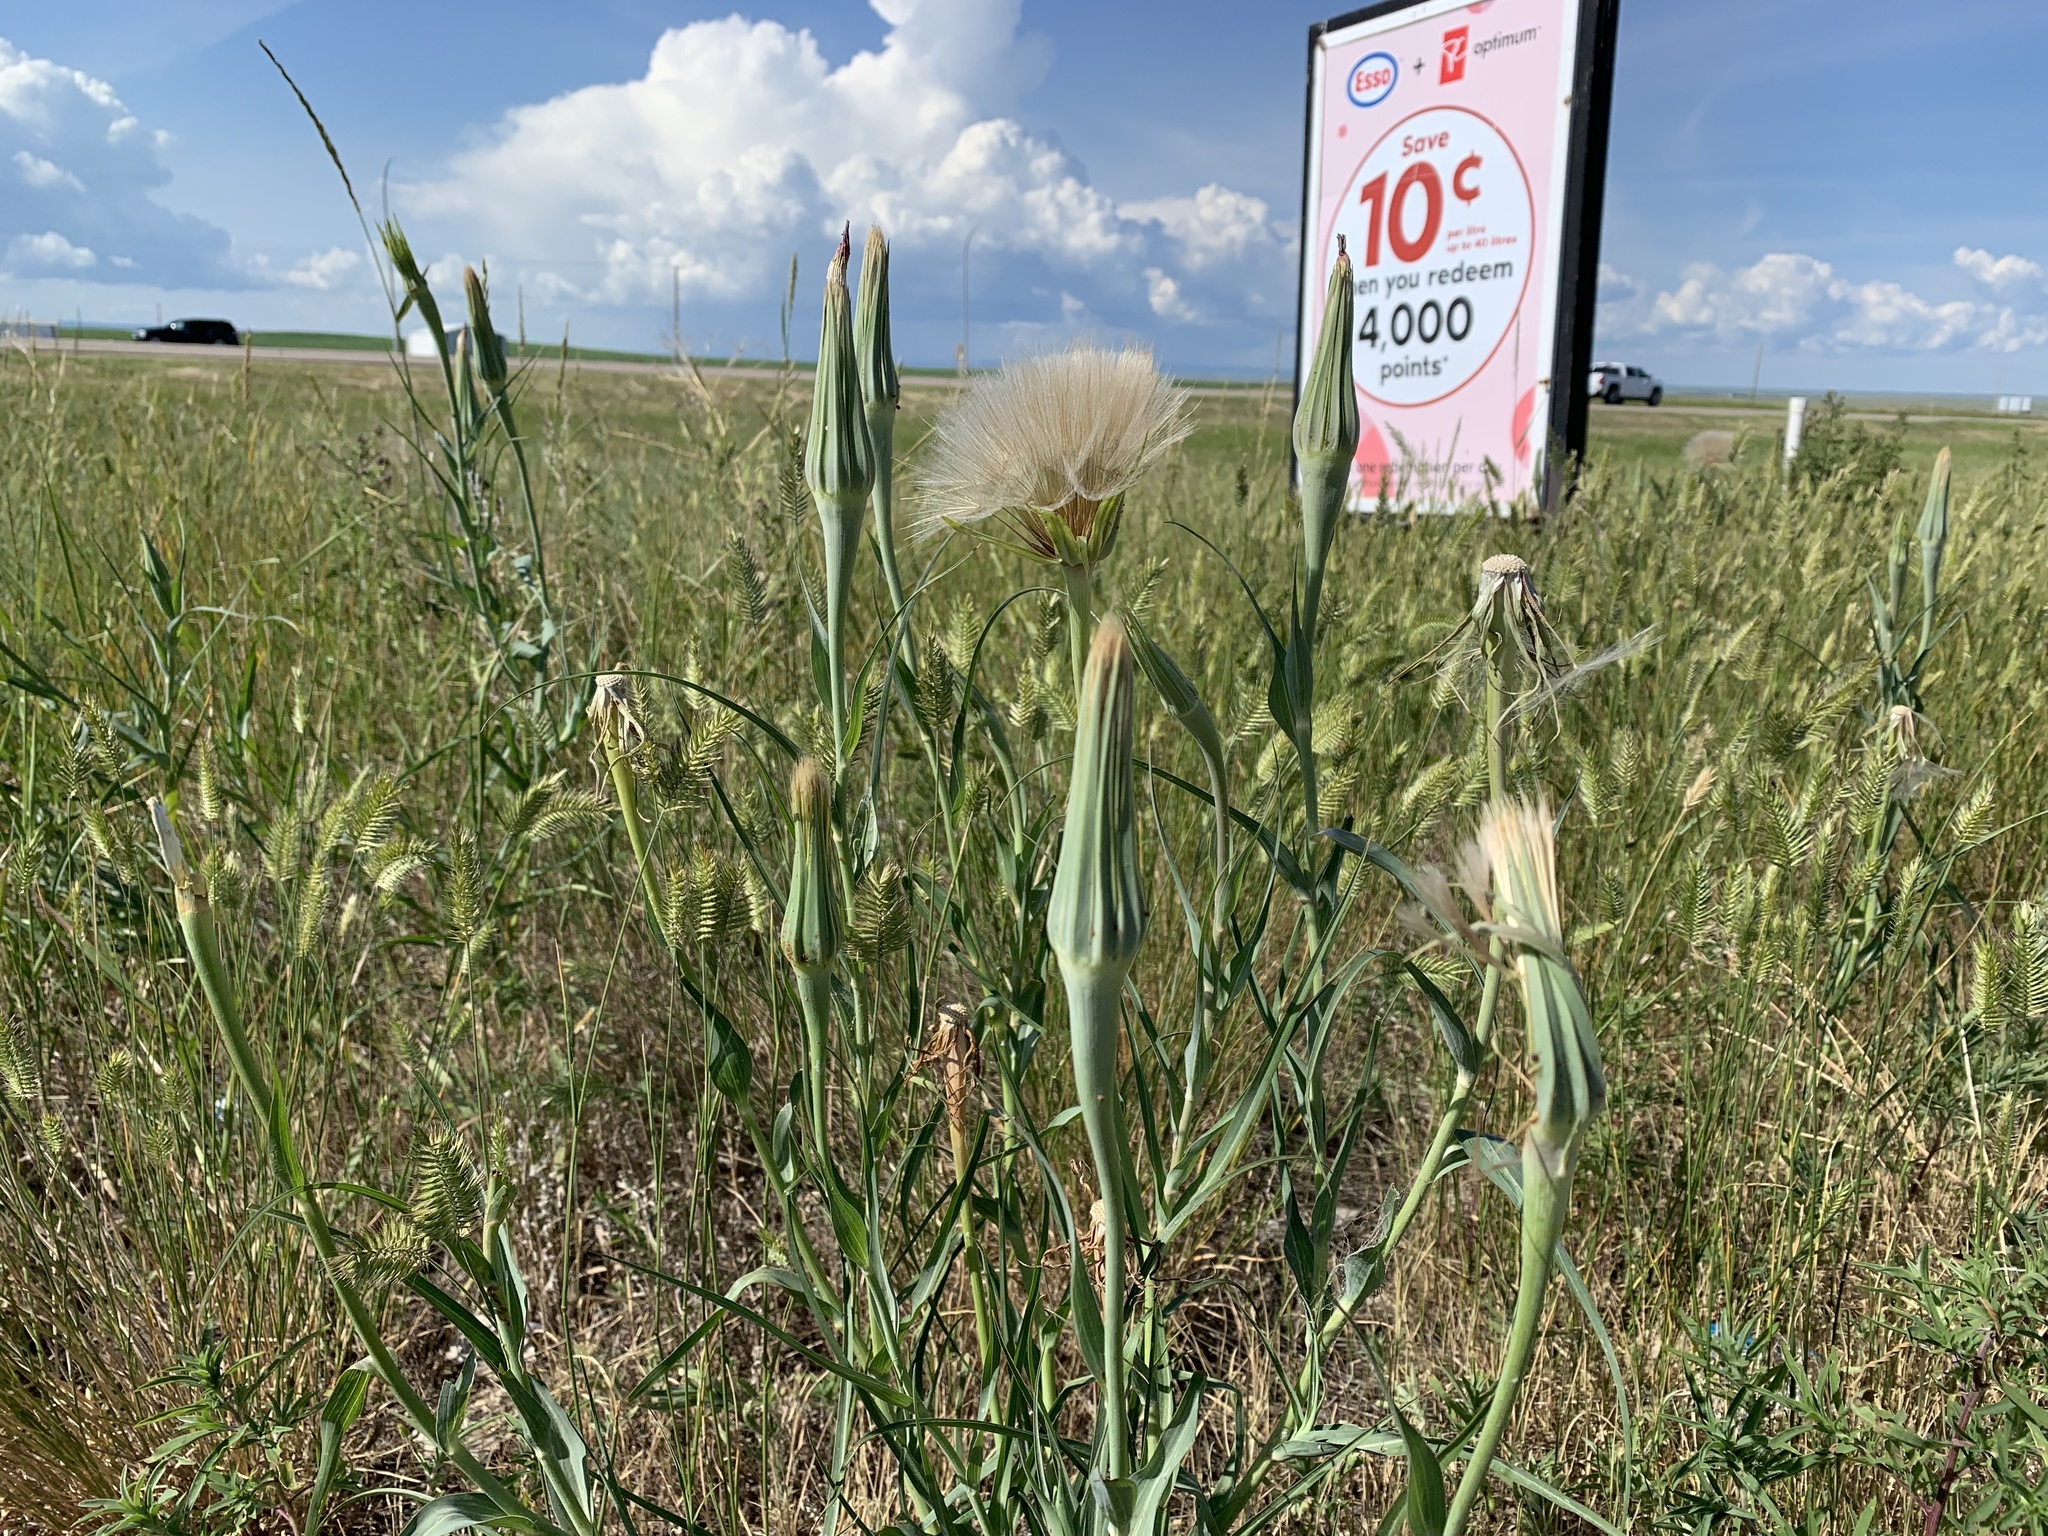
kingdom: Plantae
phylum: Tracheophyta
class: Magnoliopsida
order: Asterales
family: Asteraceae
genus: Tragopogon
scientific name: Tragopogon dubius
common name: Yellow salsify
